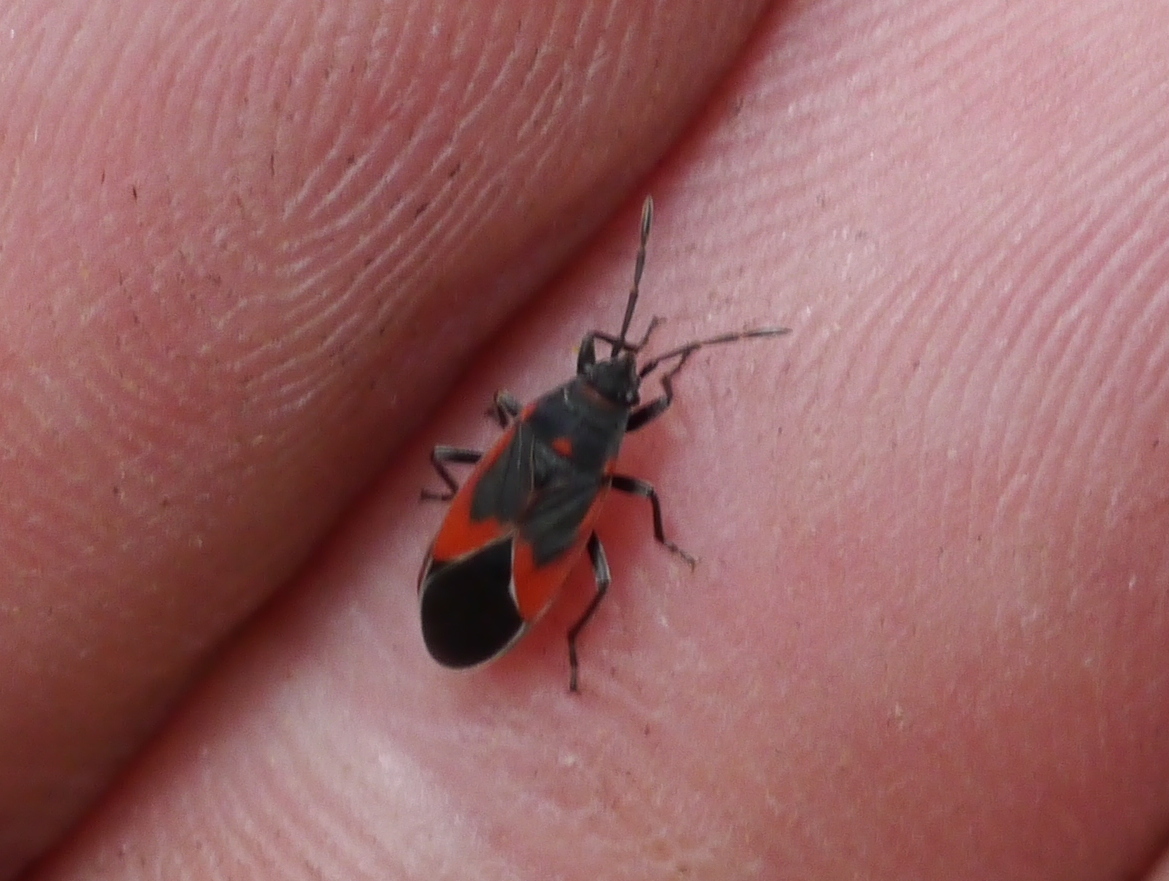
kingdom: Animalia
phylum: Arthropoda
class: Insecta
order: Hemiptera
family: Lygaeidae
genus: Melacoryphus
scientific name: Melacoryphus admirabilis
